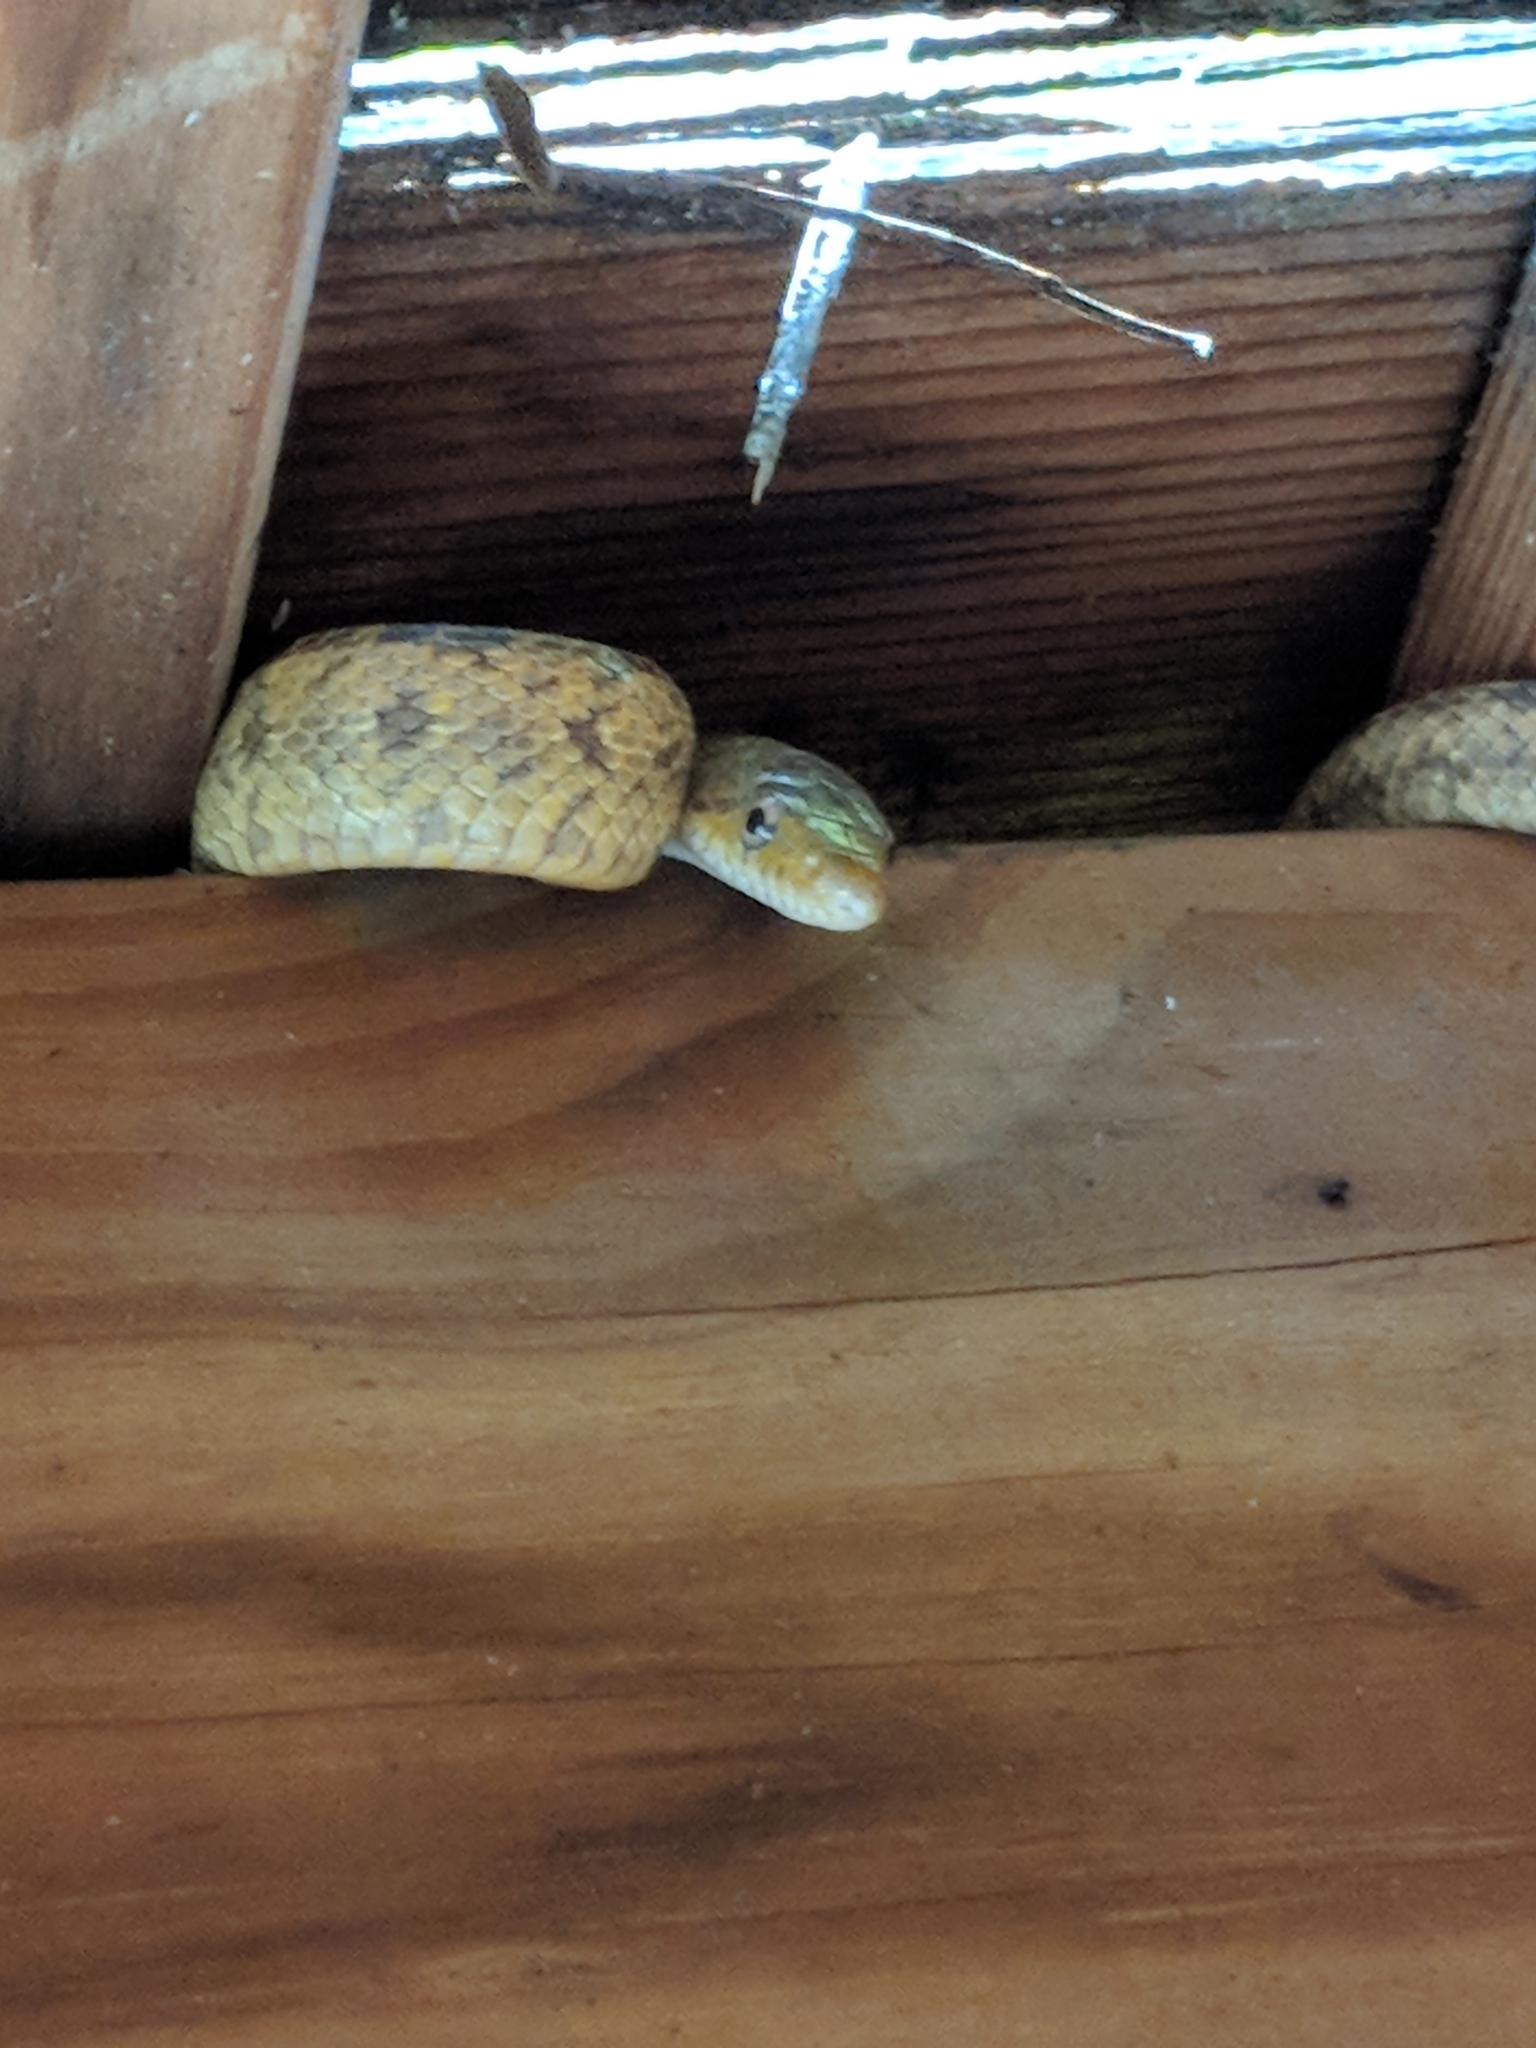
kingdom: Animalia
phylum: Chordata
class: Squamata
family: Colubridae
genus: Pantherophis
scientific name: Pantherophis alleghaniensis
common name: Eastern rat snake
